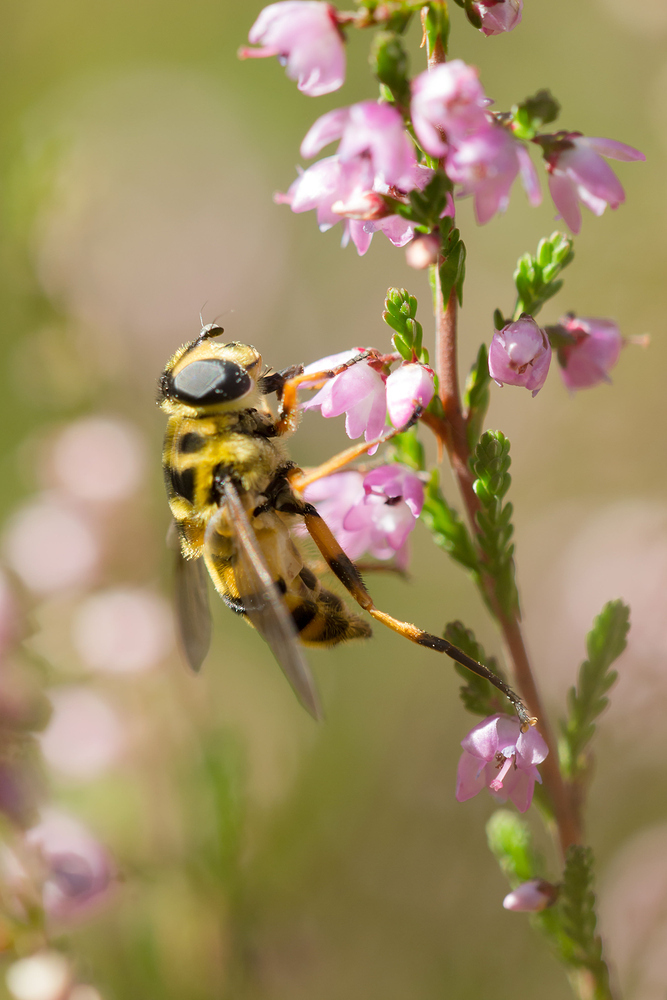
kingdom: Animalia
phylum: Arthropoda
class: Insecta
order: Diptera
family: Syrphidae
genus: Myathropa
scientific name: Myathropa florea
